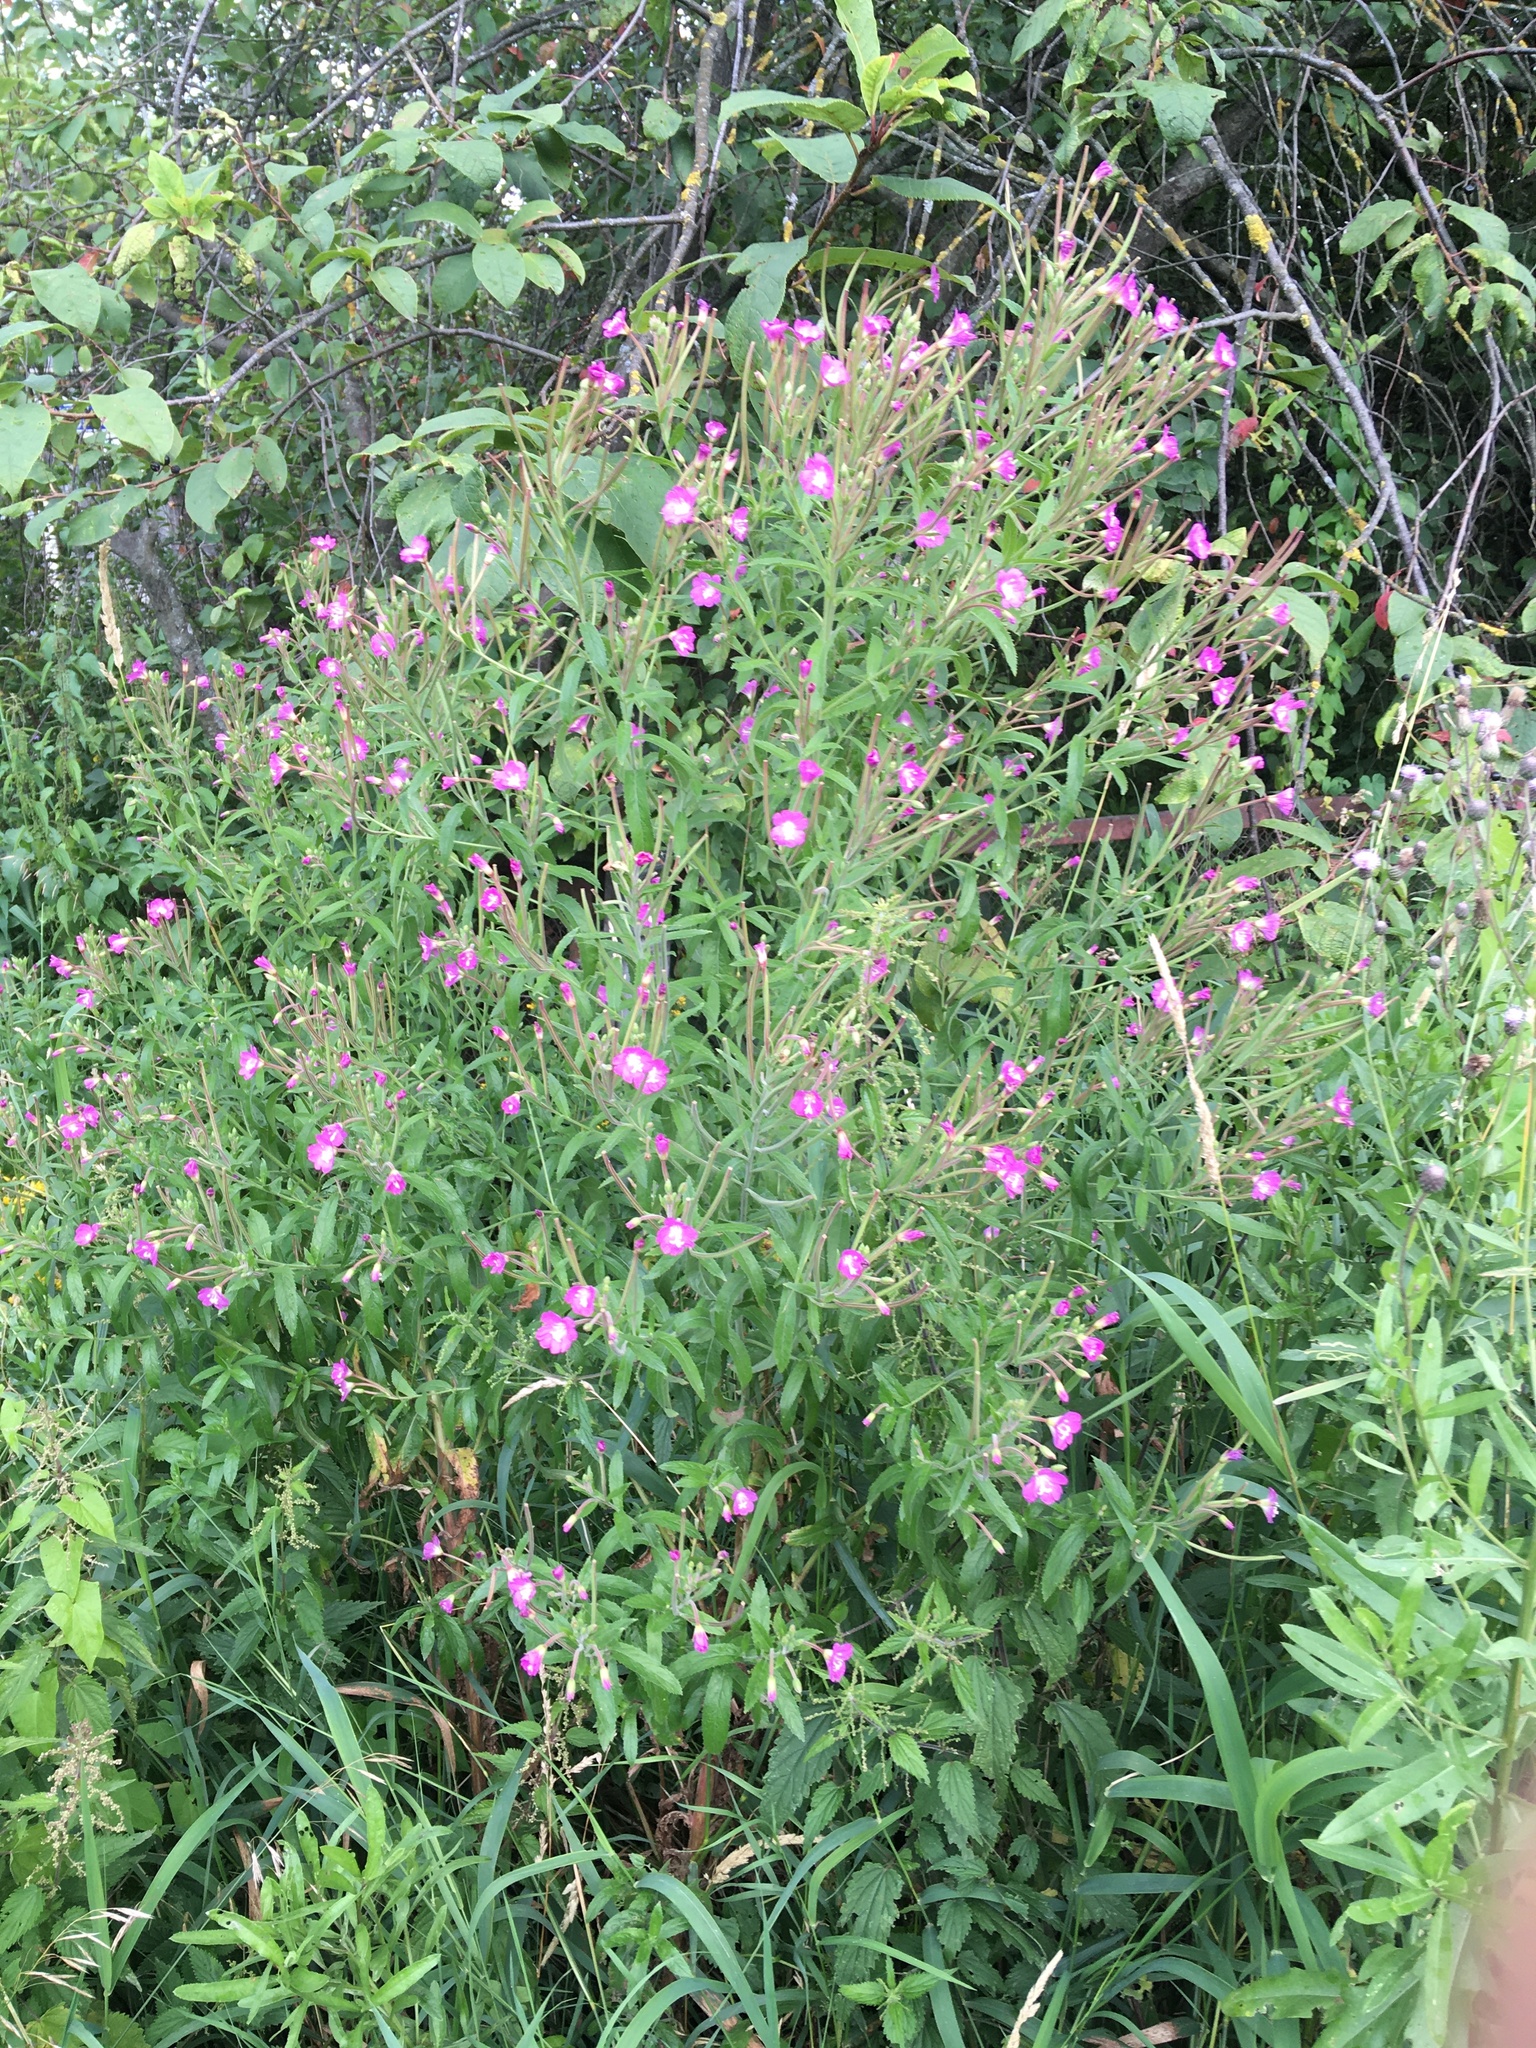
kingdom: Plantae
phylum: Tracheophyta
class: Magnoliopsida
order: Myrtales
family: Onagraceae
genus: Epilobium
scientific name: Epilobium hirsutum
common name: Great willowherb
